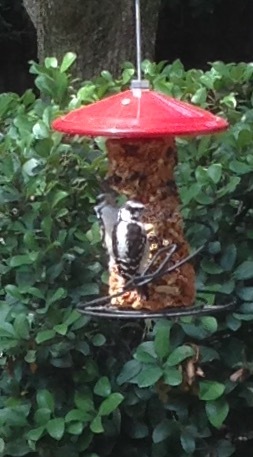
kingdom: Animalia
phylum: Chordata
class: Aves
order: Piciformes
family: Picidae
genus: Dryobates
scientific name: Dryobates pubescens
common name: Downy woodpecker
